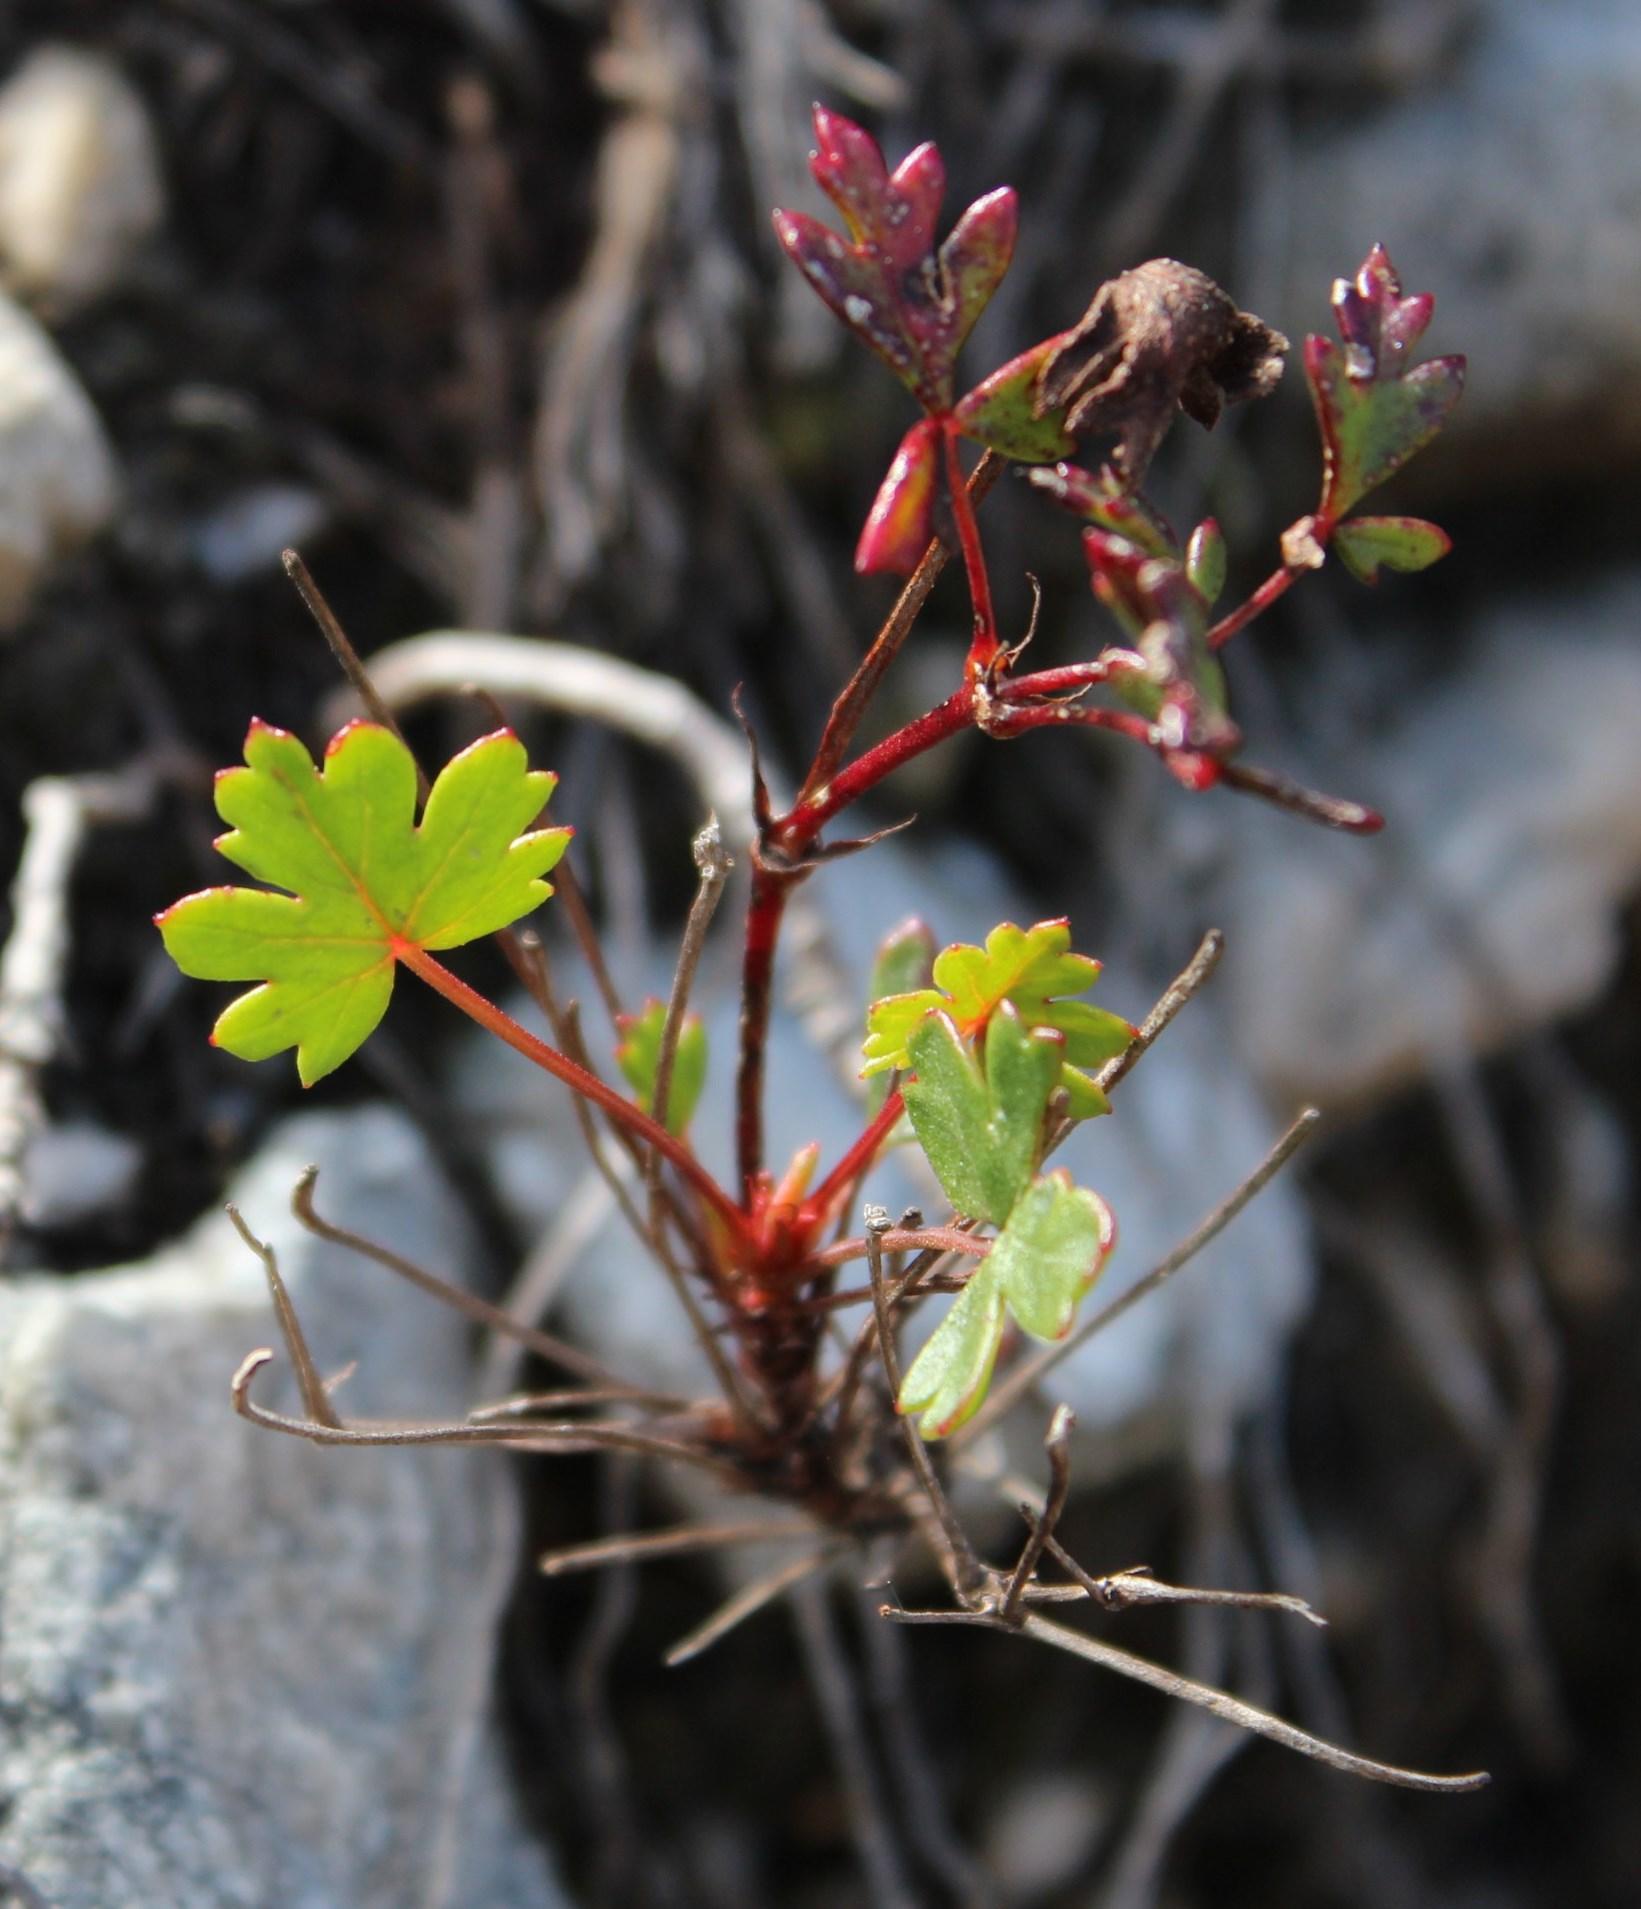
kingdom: Plantae
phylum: Tracheophyta
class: Magnoliopsida
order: Geraniales
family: Geraniaceae
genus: Pelargonium
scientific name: Pelargonium incarnatum
